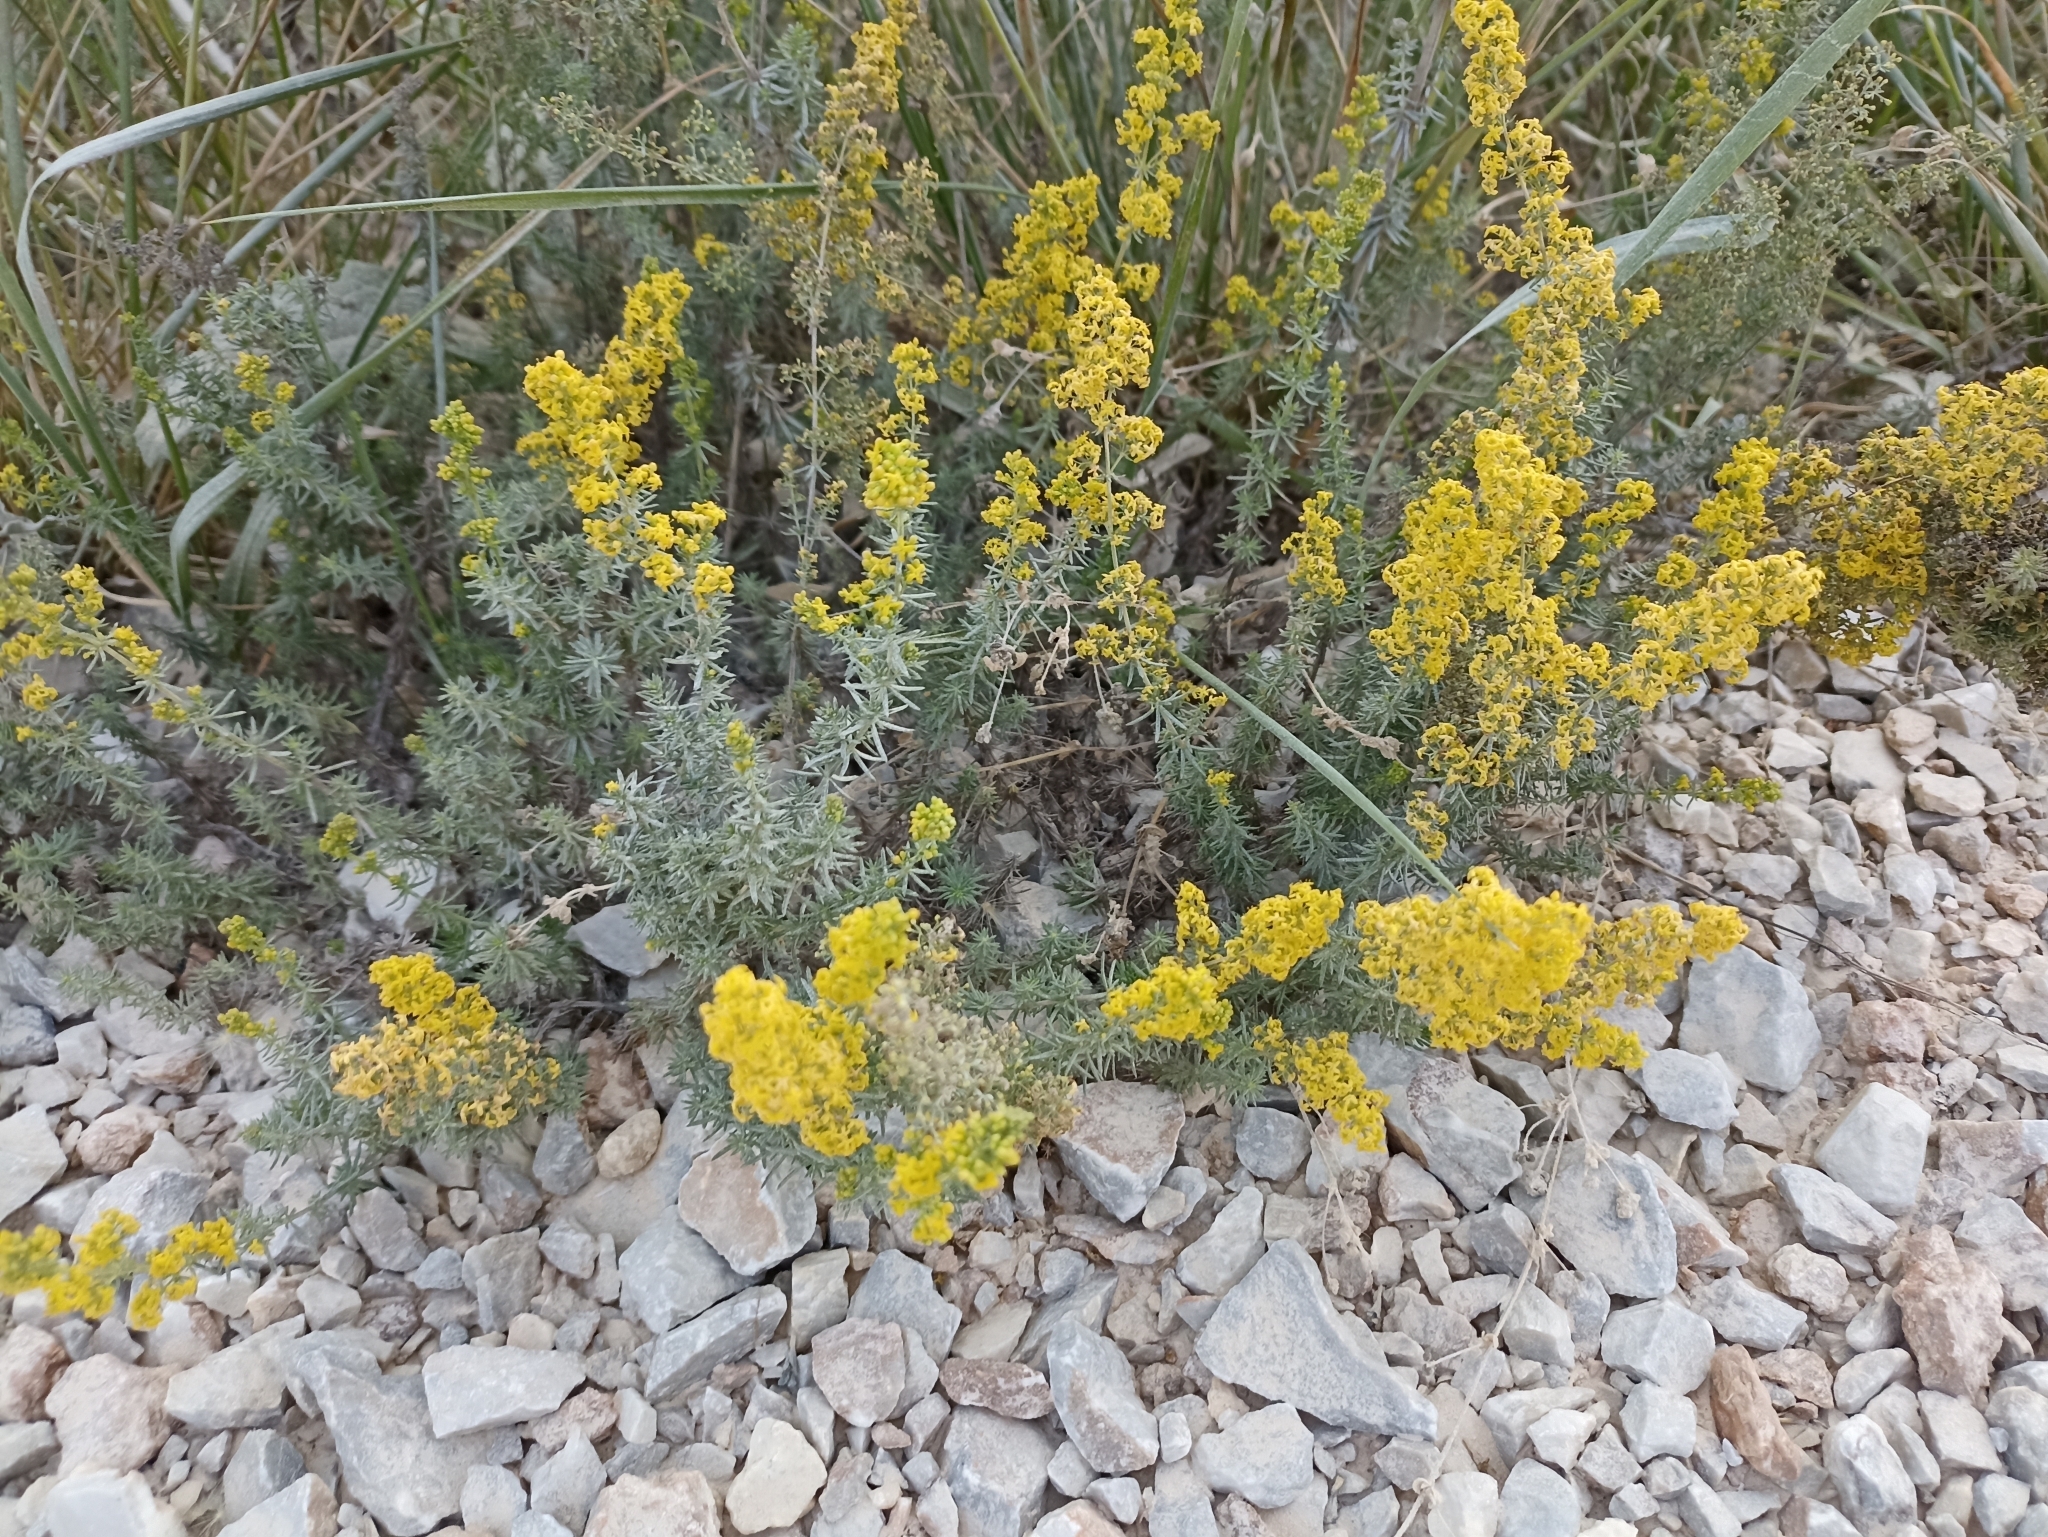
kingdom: Plantae
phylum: Tracheophyta
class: Magnoliopsida
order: Gentianales
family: Rubiaceae
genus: Galium
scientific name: Galium verum
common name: Lady's bedstraw
